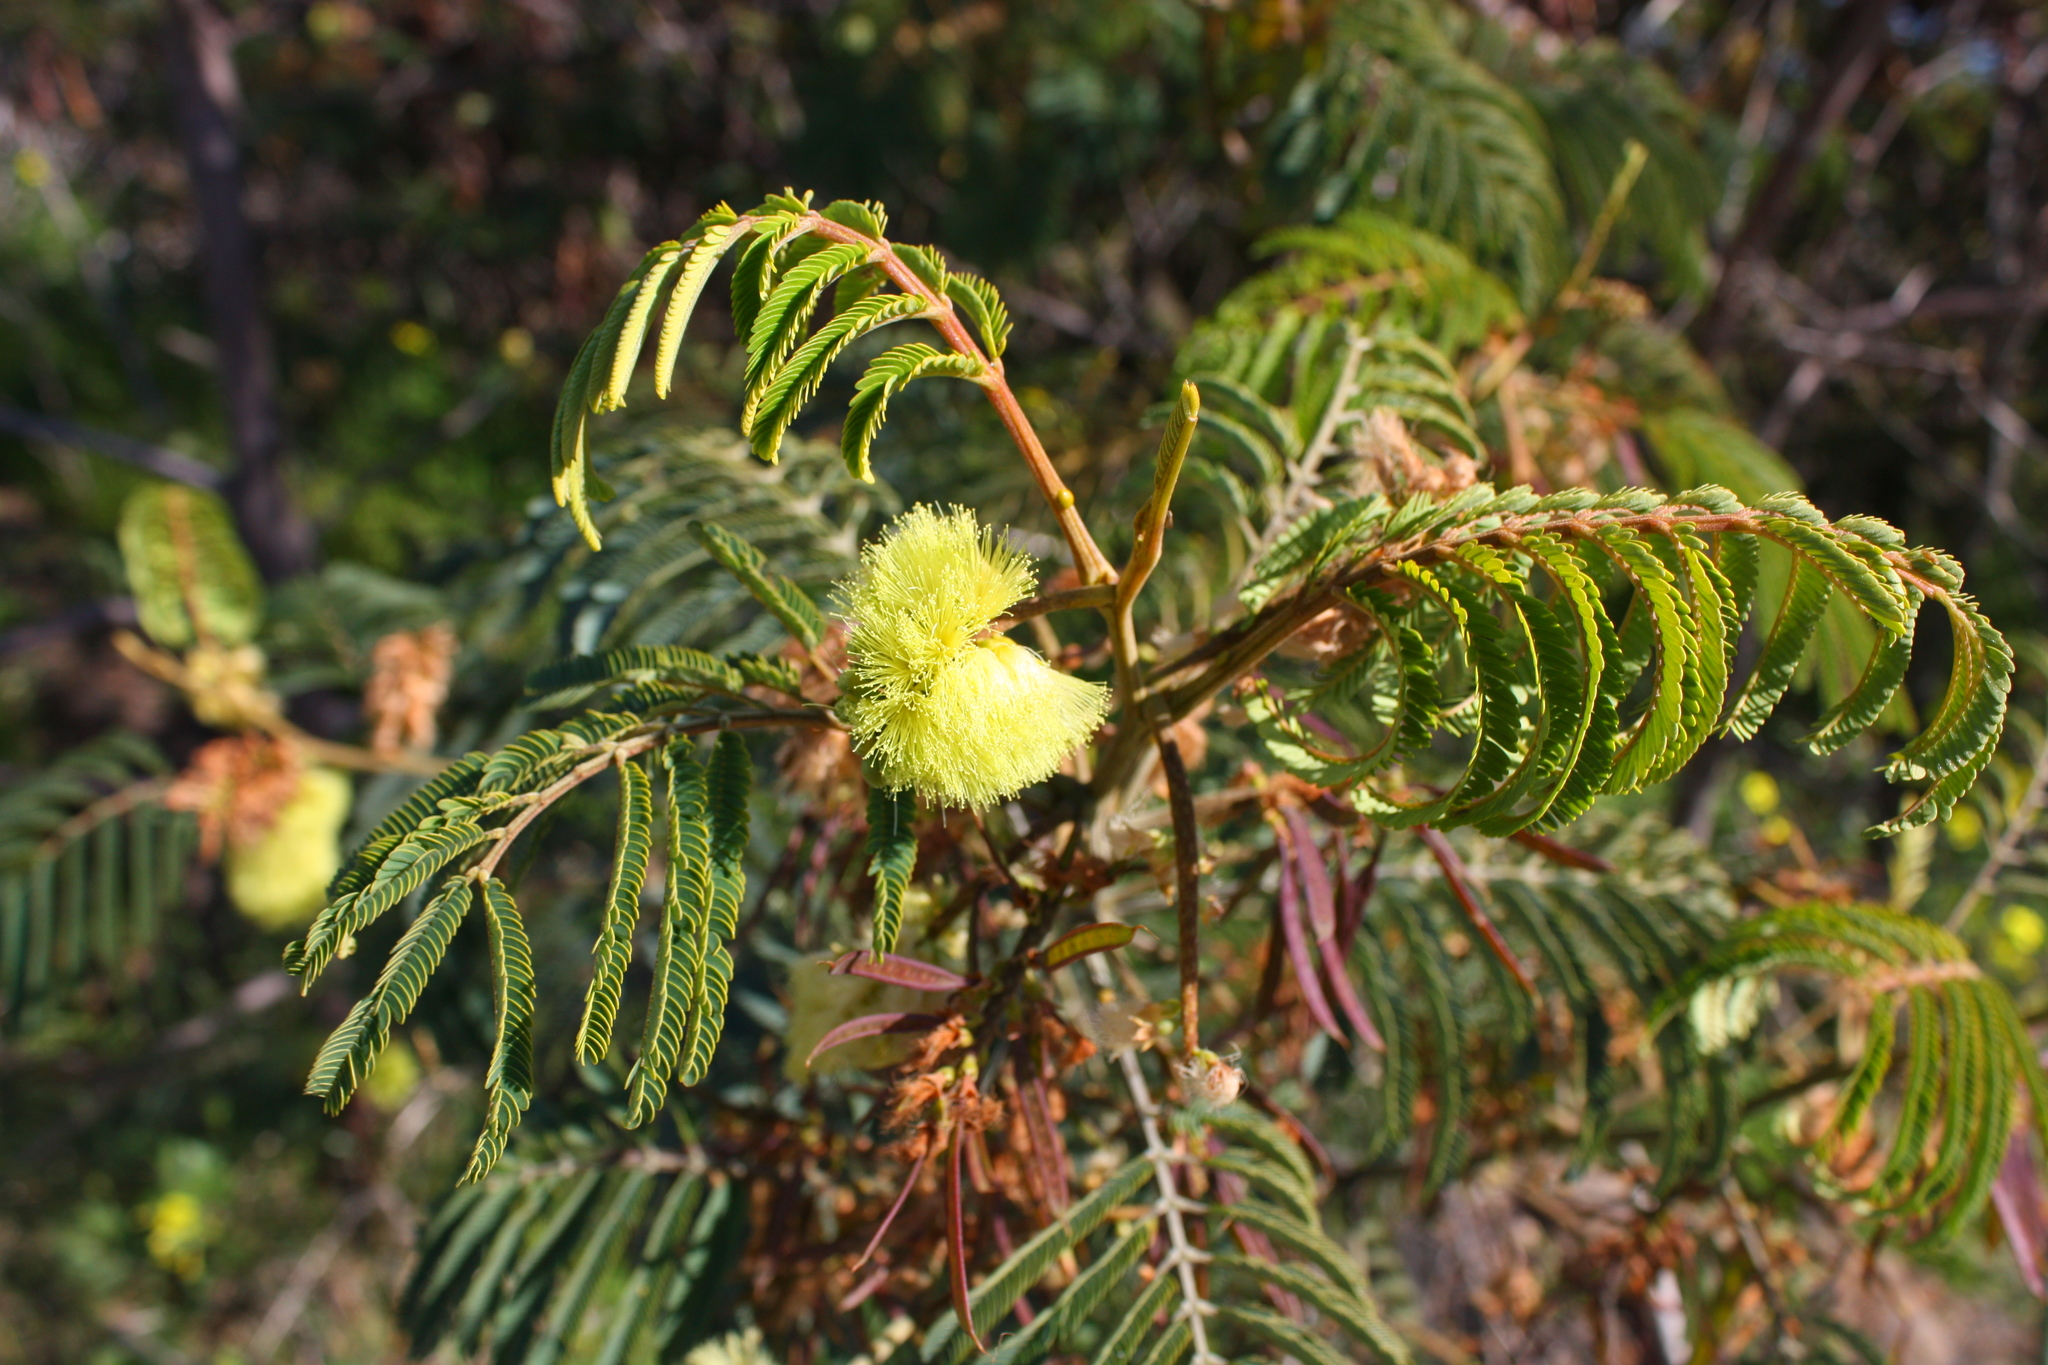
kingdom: Plantae
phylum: Tracheophyta
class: Magnoliopsida
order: Fabales
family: Fabaceae
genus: Paraserianthes
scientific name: Paraserianthes lophantha
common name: Plume albizia
